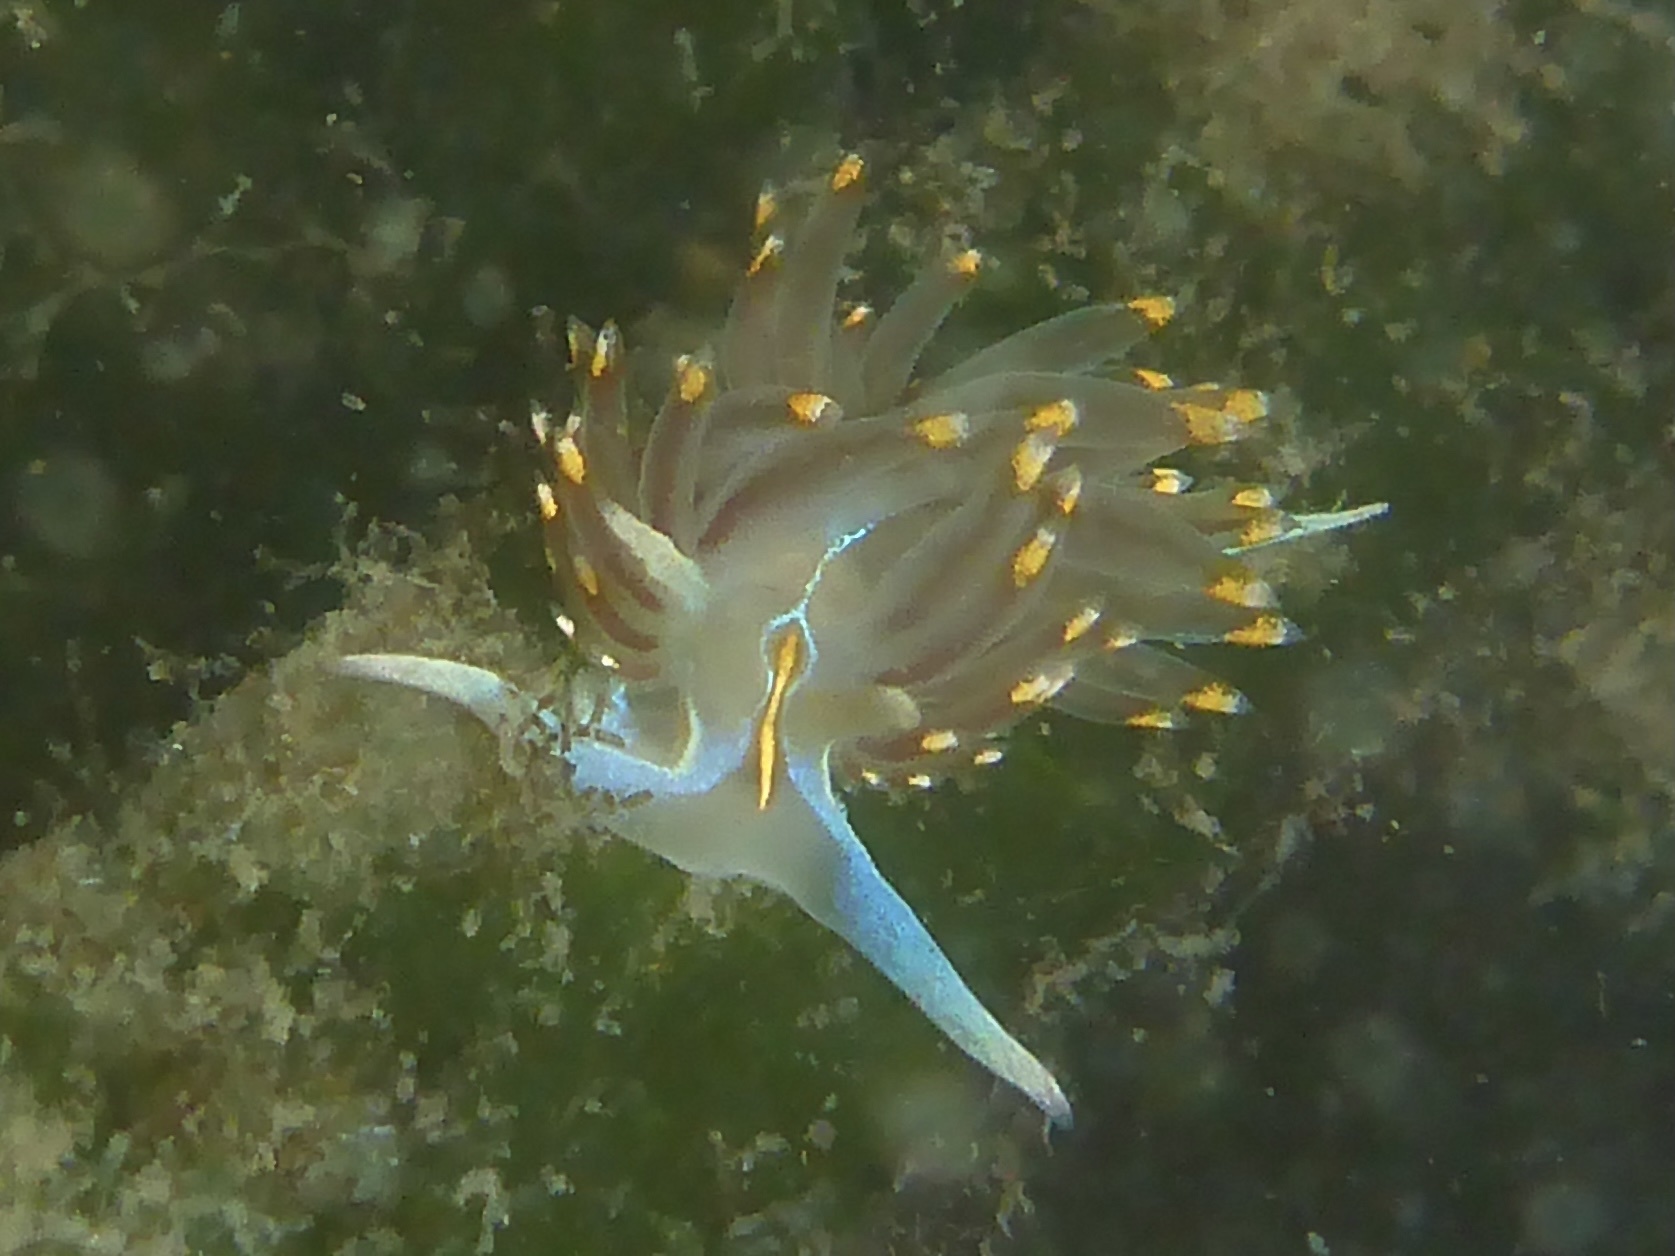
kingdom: Animalia
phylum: Mollusca
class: Gastropoda
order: Nudibranchia
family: Myrrhinidae
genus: Hermissenda
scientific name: Hermissenda opalescens
